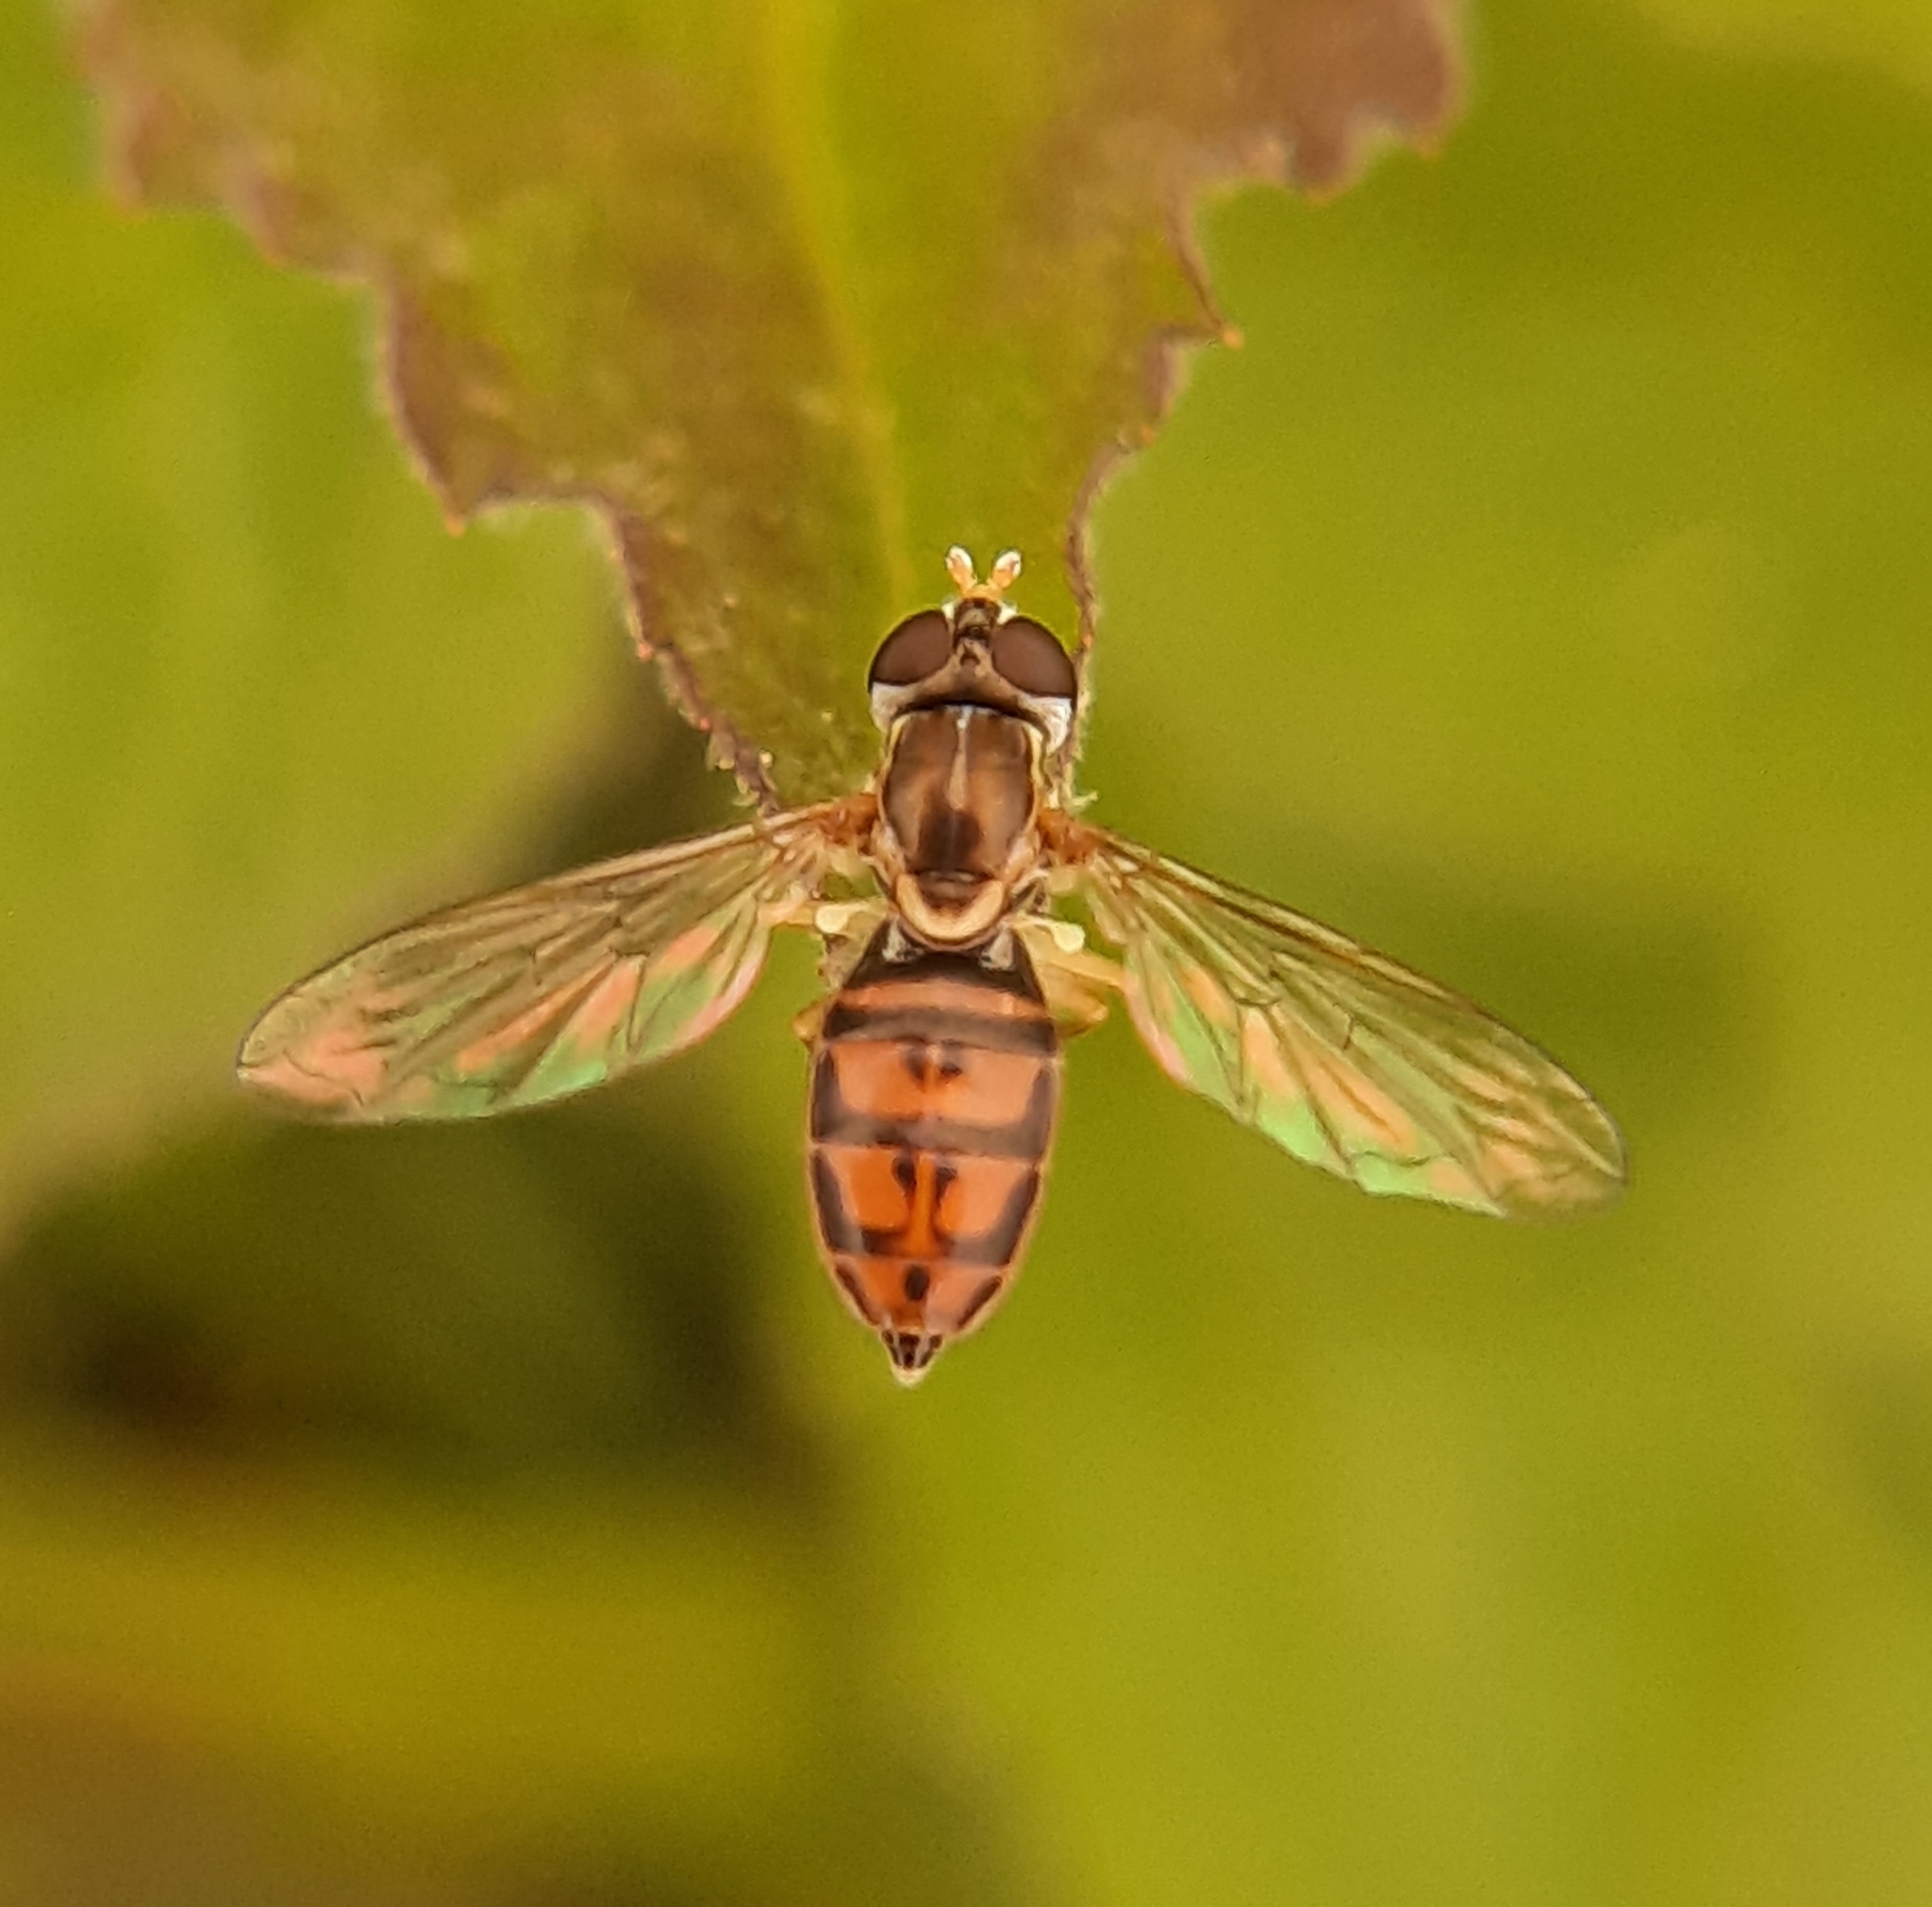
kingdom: Animalia
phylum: Arthropoda
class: Insecta
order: Diptera
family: Syrphidae
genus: Toxomerus
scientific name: Toxomerus marginatus
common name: Syrphid fly
